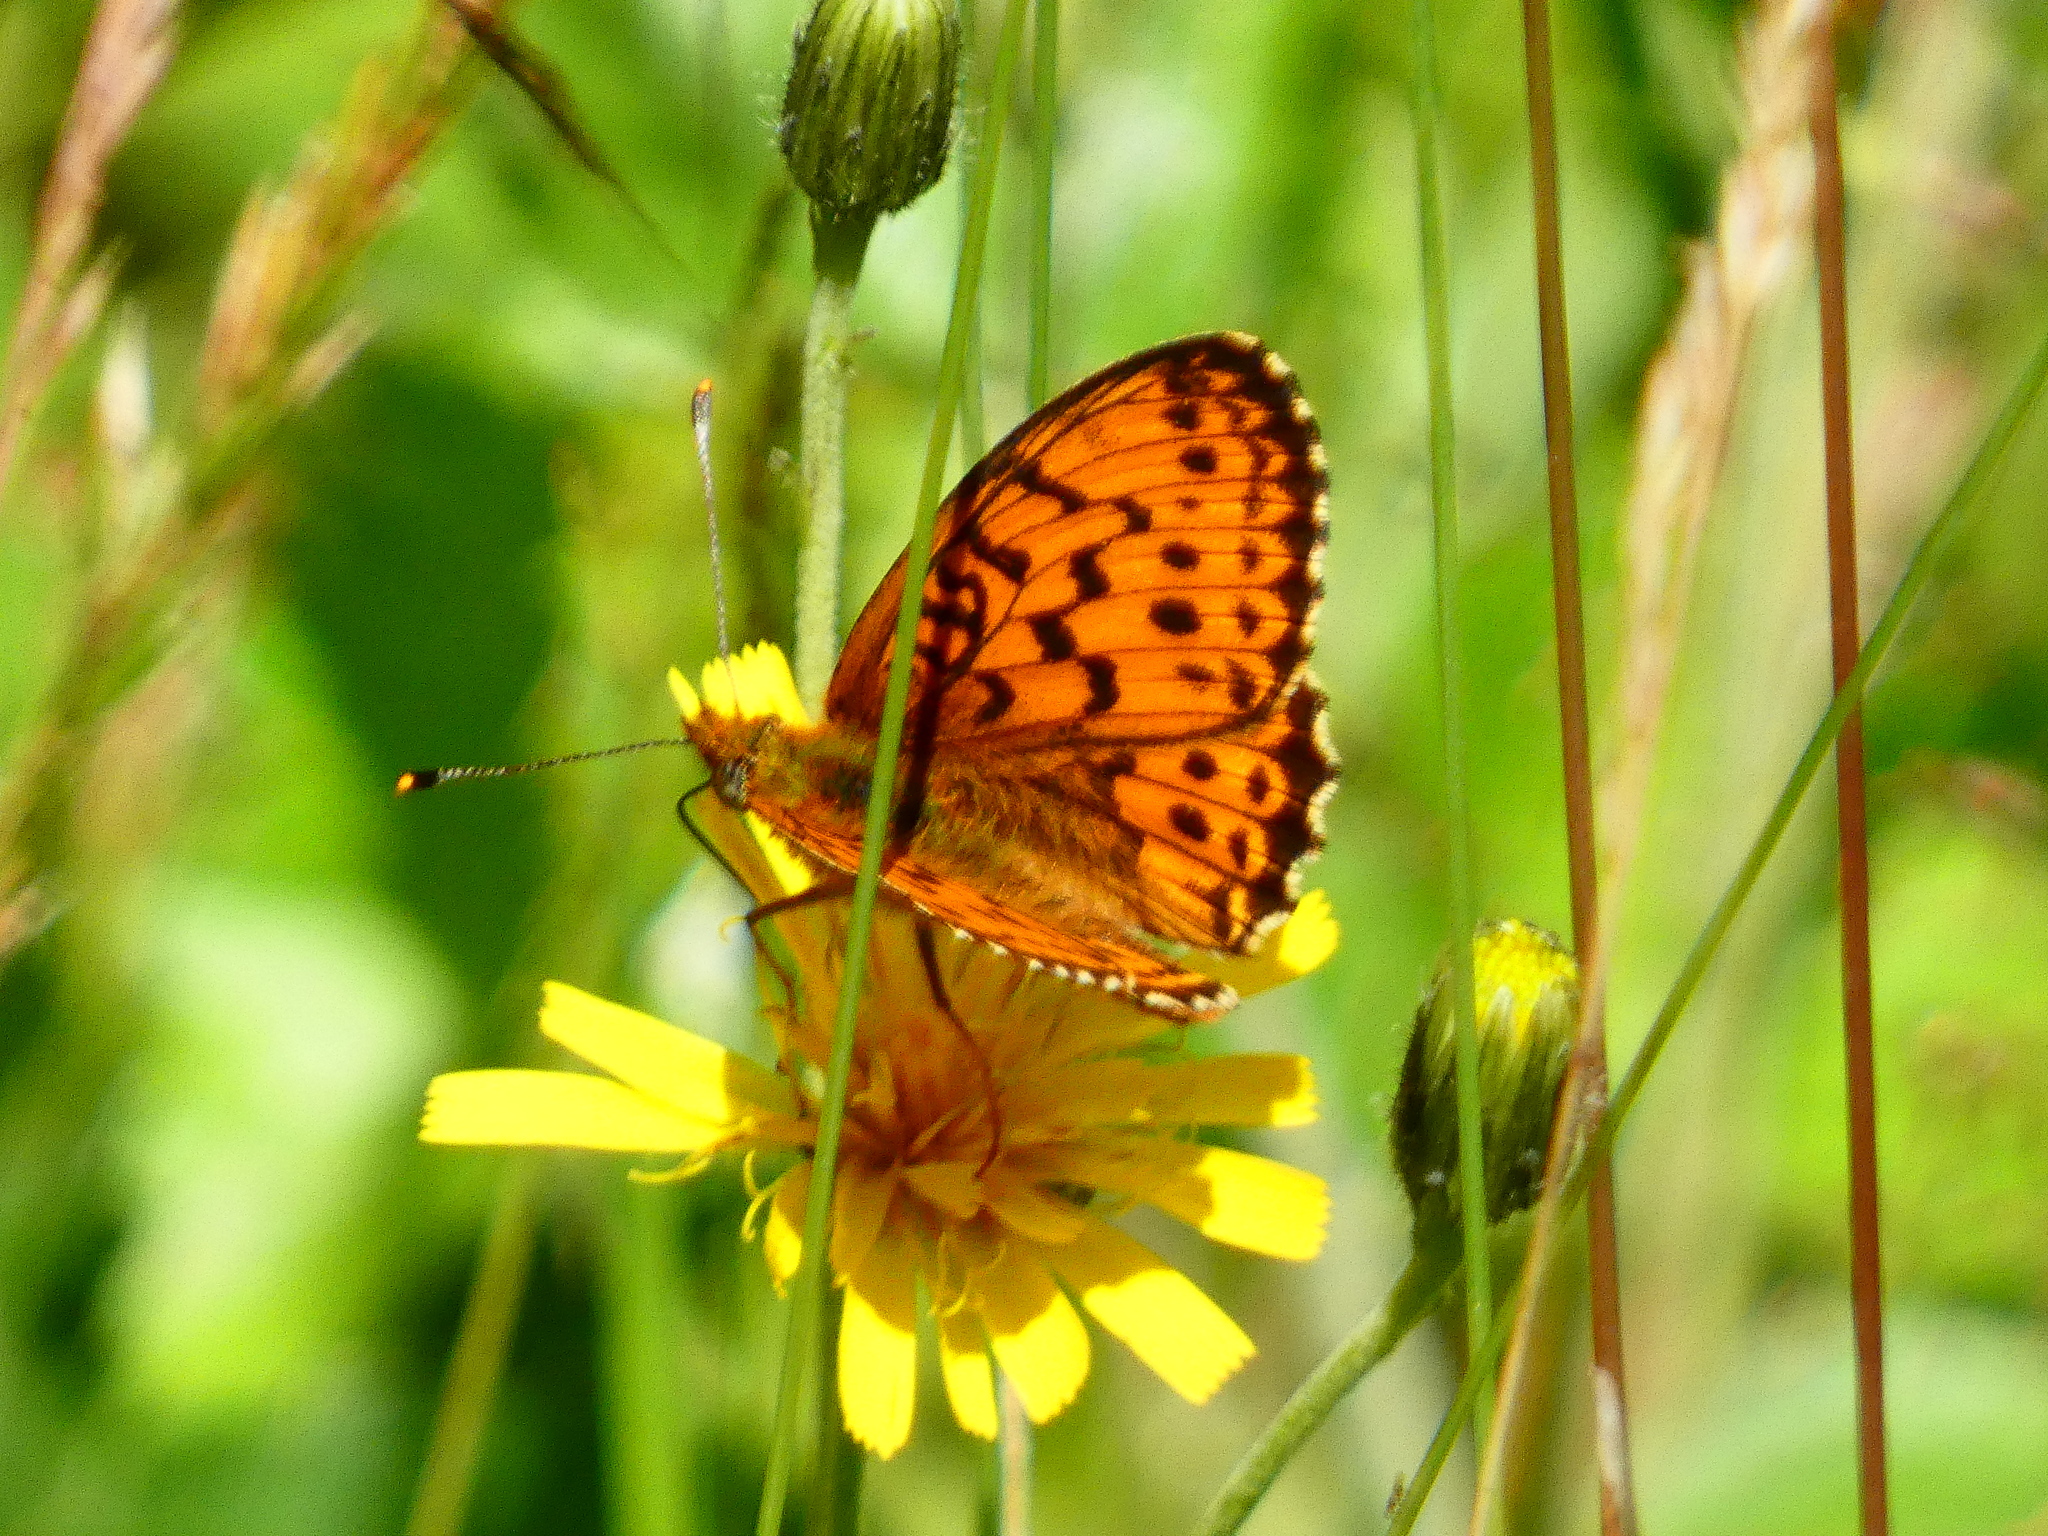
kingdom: Animalia
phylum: Arthropoda
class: Insecta
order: Lepidoptera
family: Nymphalidae
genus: Brenthis
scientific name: Brenthis ino
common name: Lesser marbled fritillary
